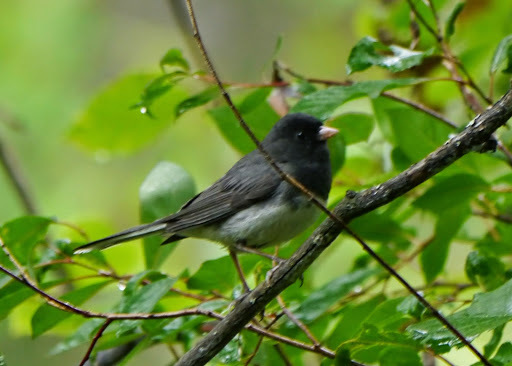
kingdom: Animalia
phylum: Chordata
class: Aves
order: Passeriformes
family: Passerellidae
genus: Junco
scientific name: Junco hyemalis
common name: Dark-eyed junco
